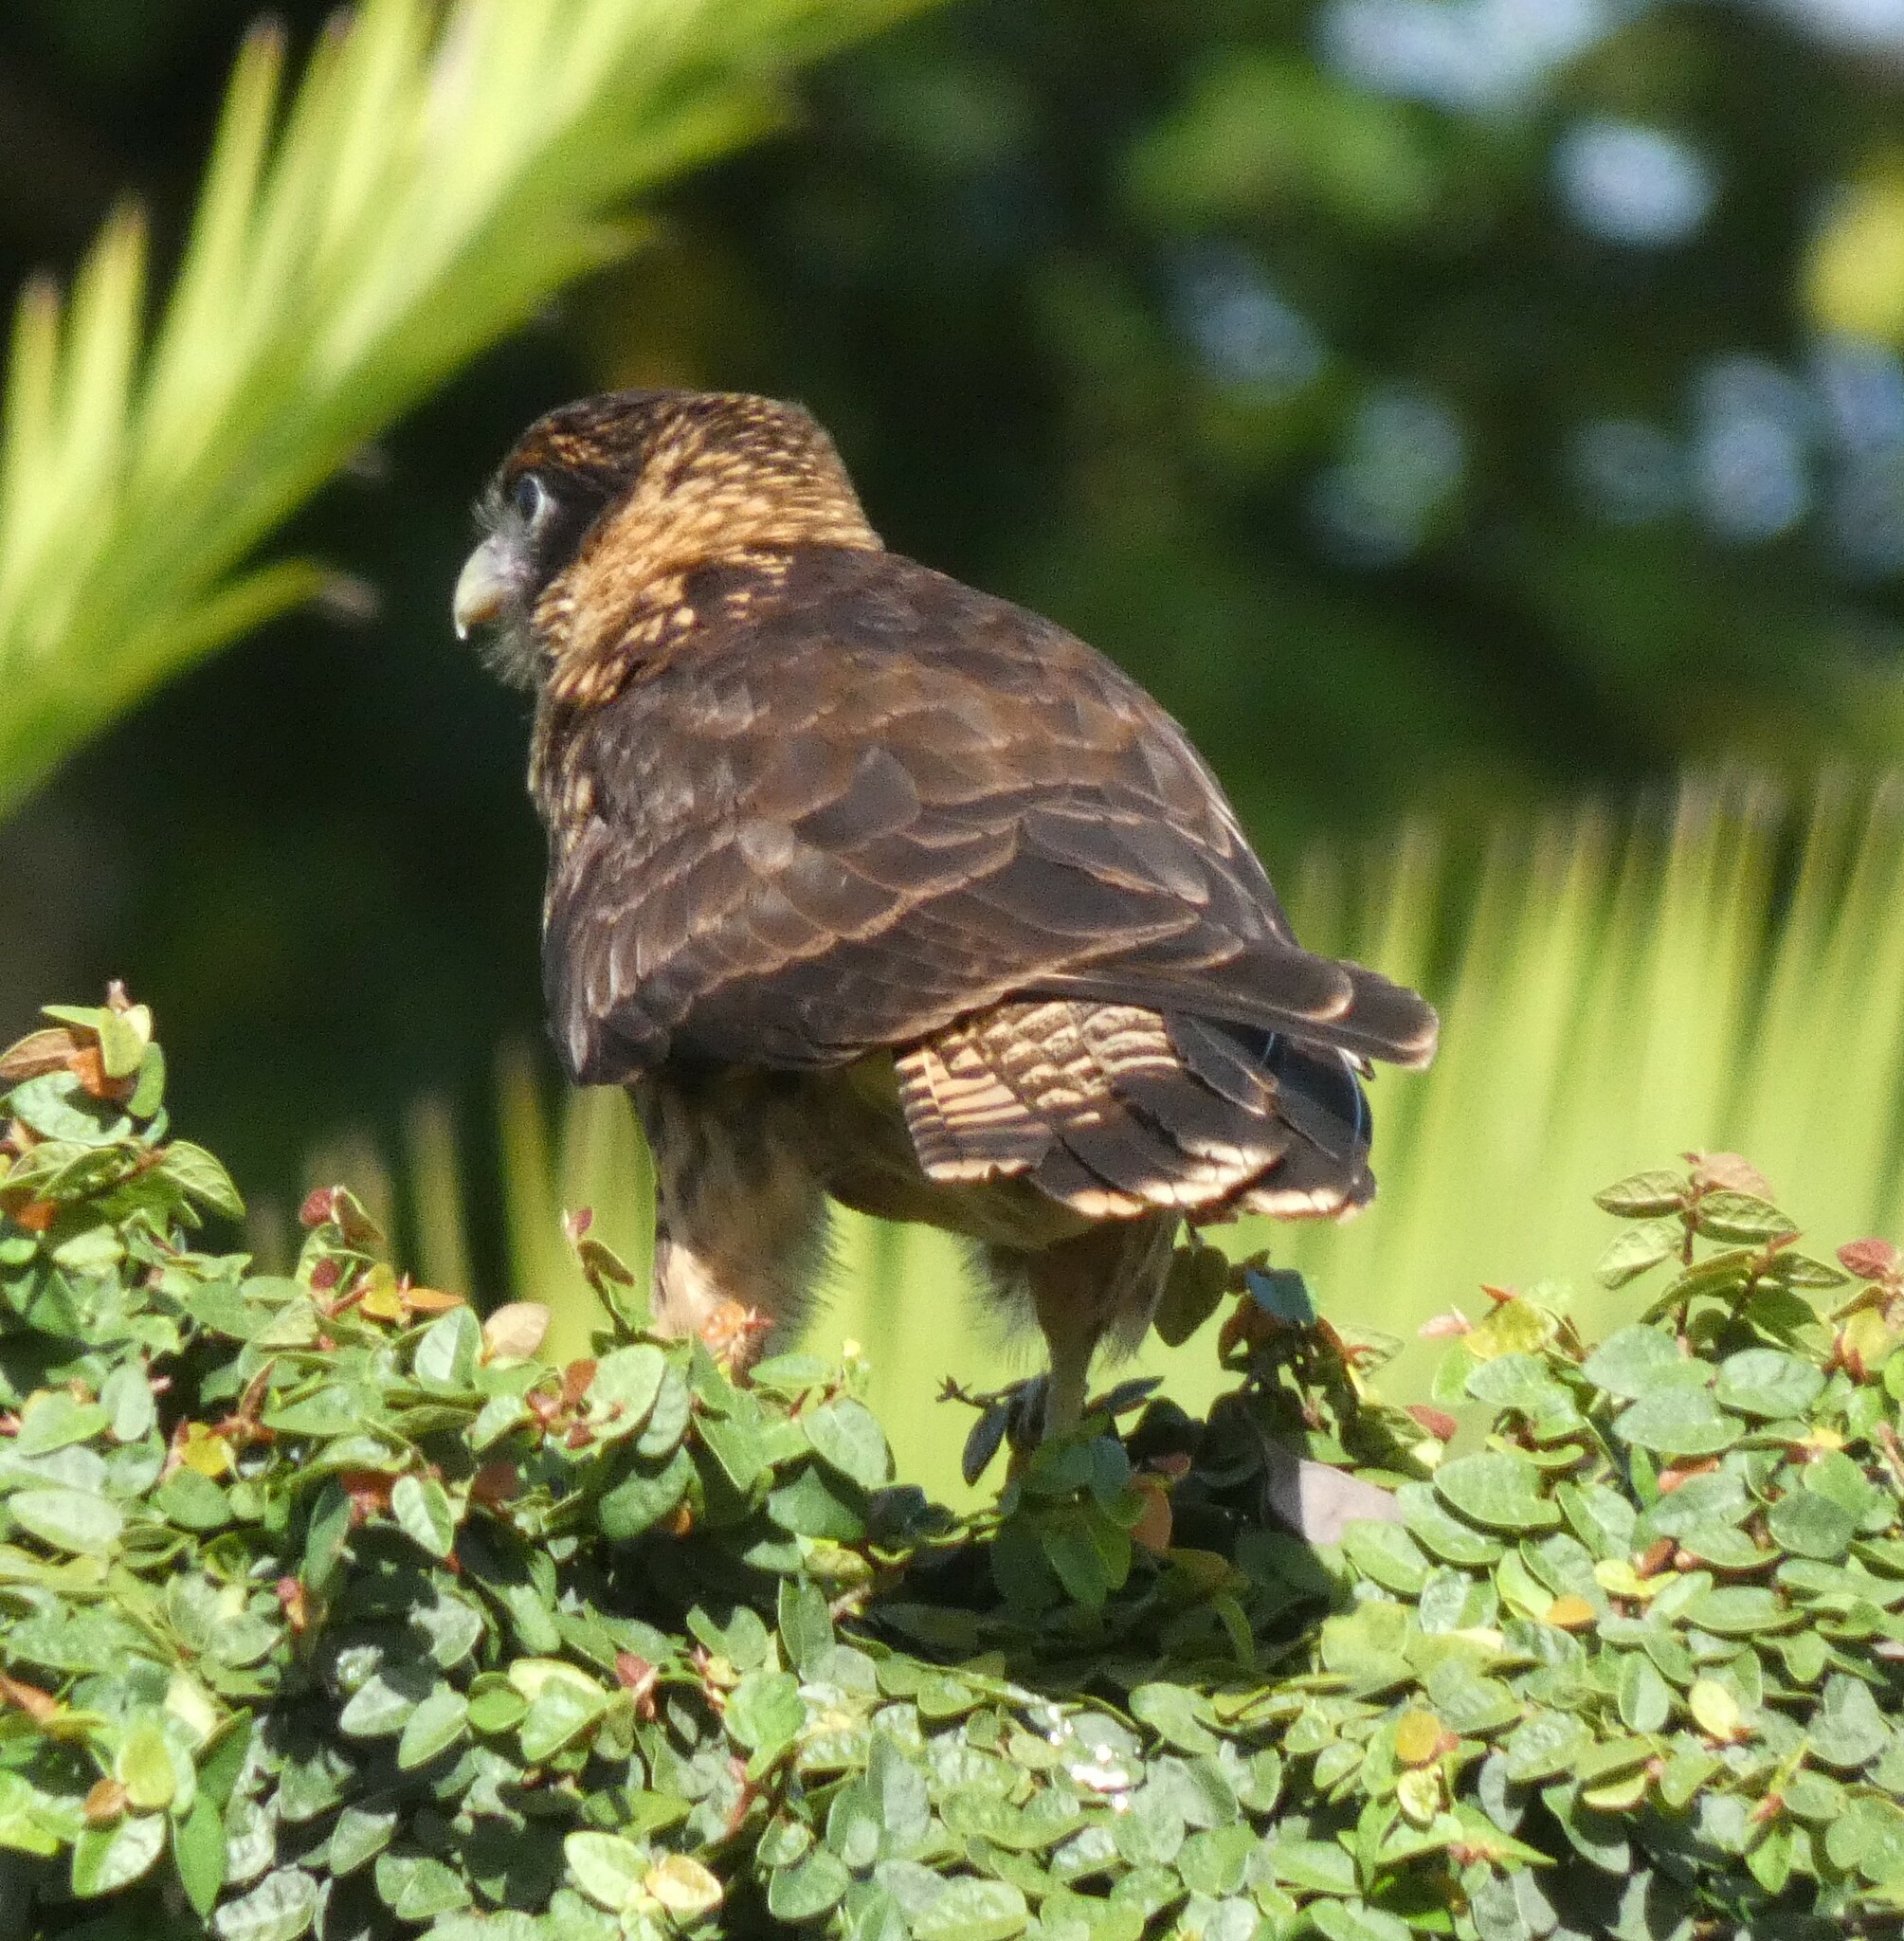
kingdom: Animalia
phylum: Chordata
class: Aves
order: Falconiformes
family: Falconidae
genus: Daptrius
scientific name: Daptrius
